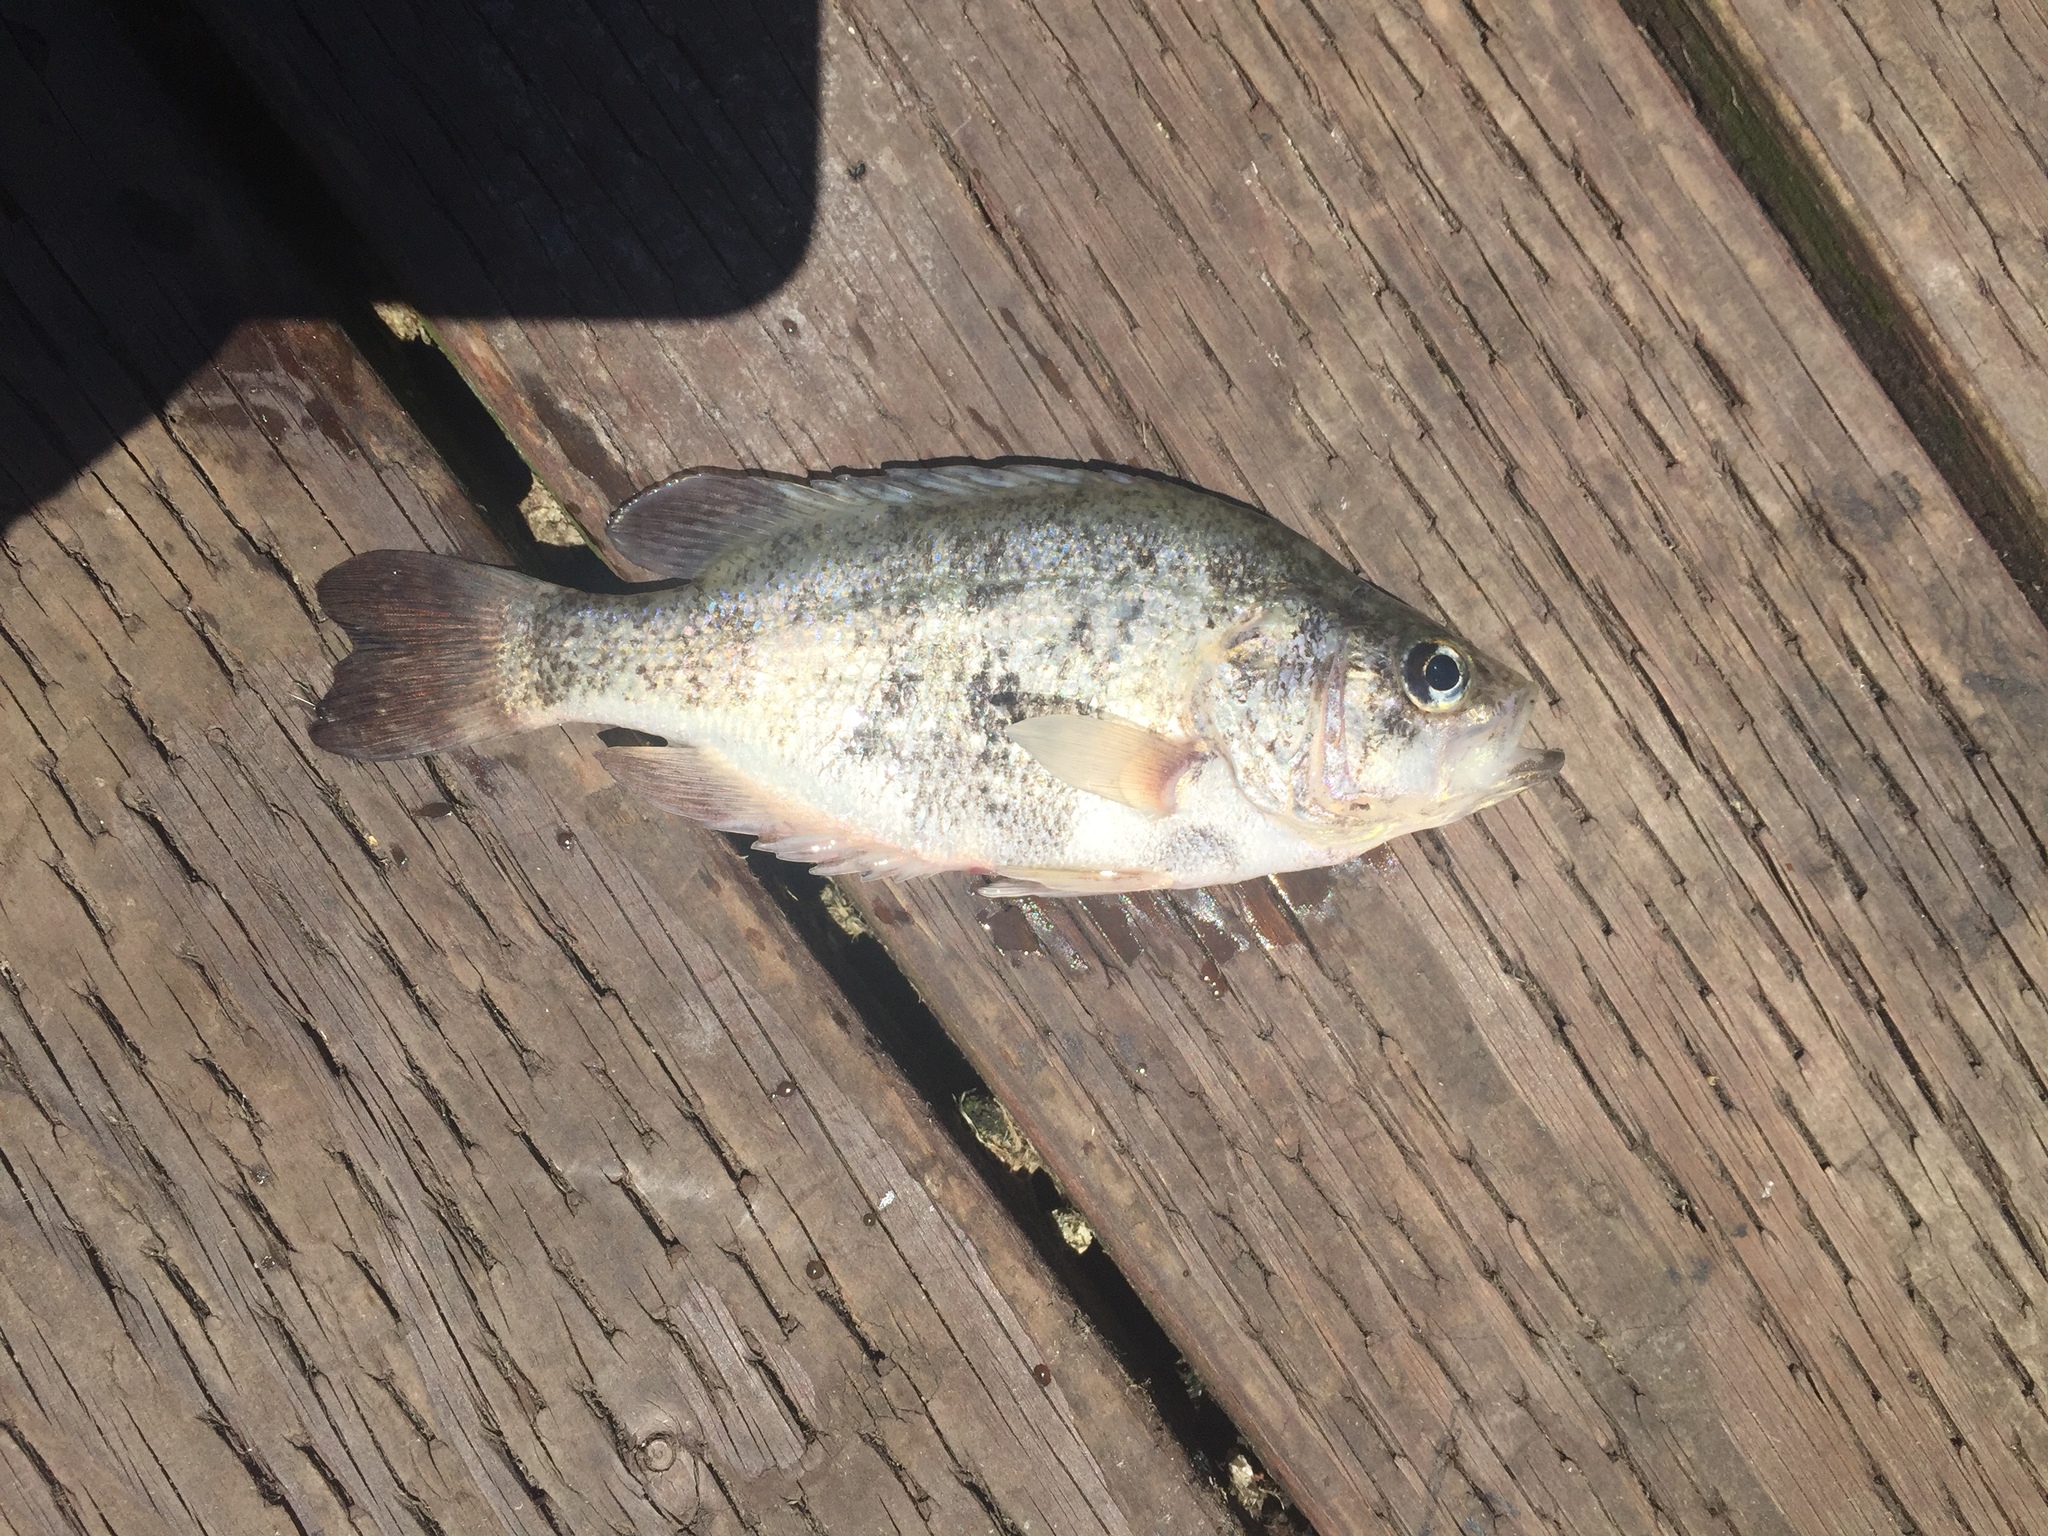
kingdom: Animalia
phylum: Chordata
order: Perciformes
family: Centrarchidae
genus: Archoplites
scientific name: Archoplites interruptus
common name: Sacramento perch
